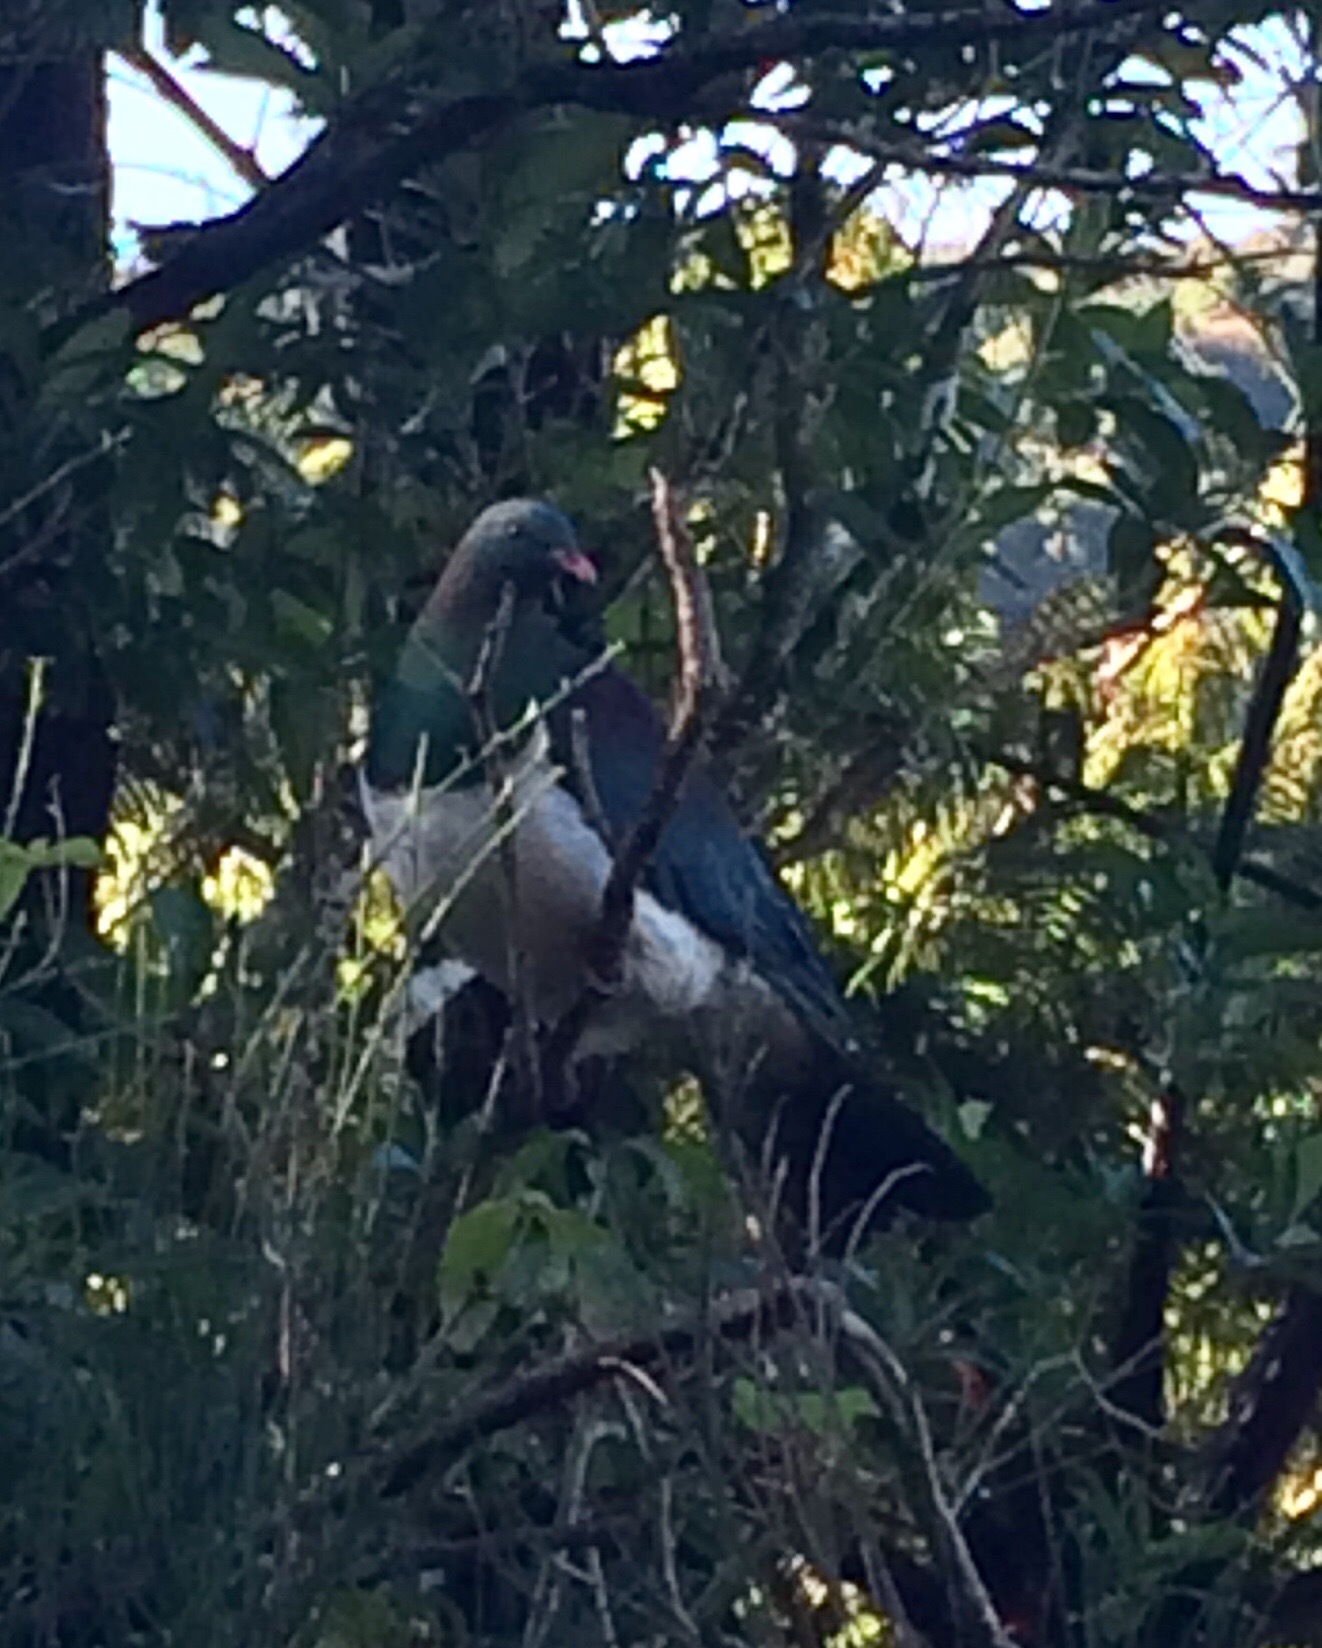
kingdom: Animalia
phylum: Chordata
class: Aves
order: Columbiformes
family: Columbidae
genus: Hemiphaga
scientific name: Hemiphaga novaeseelandiae
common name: New zealand pigeon
